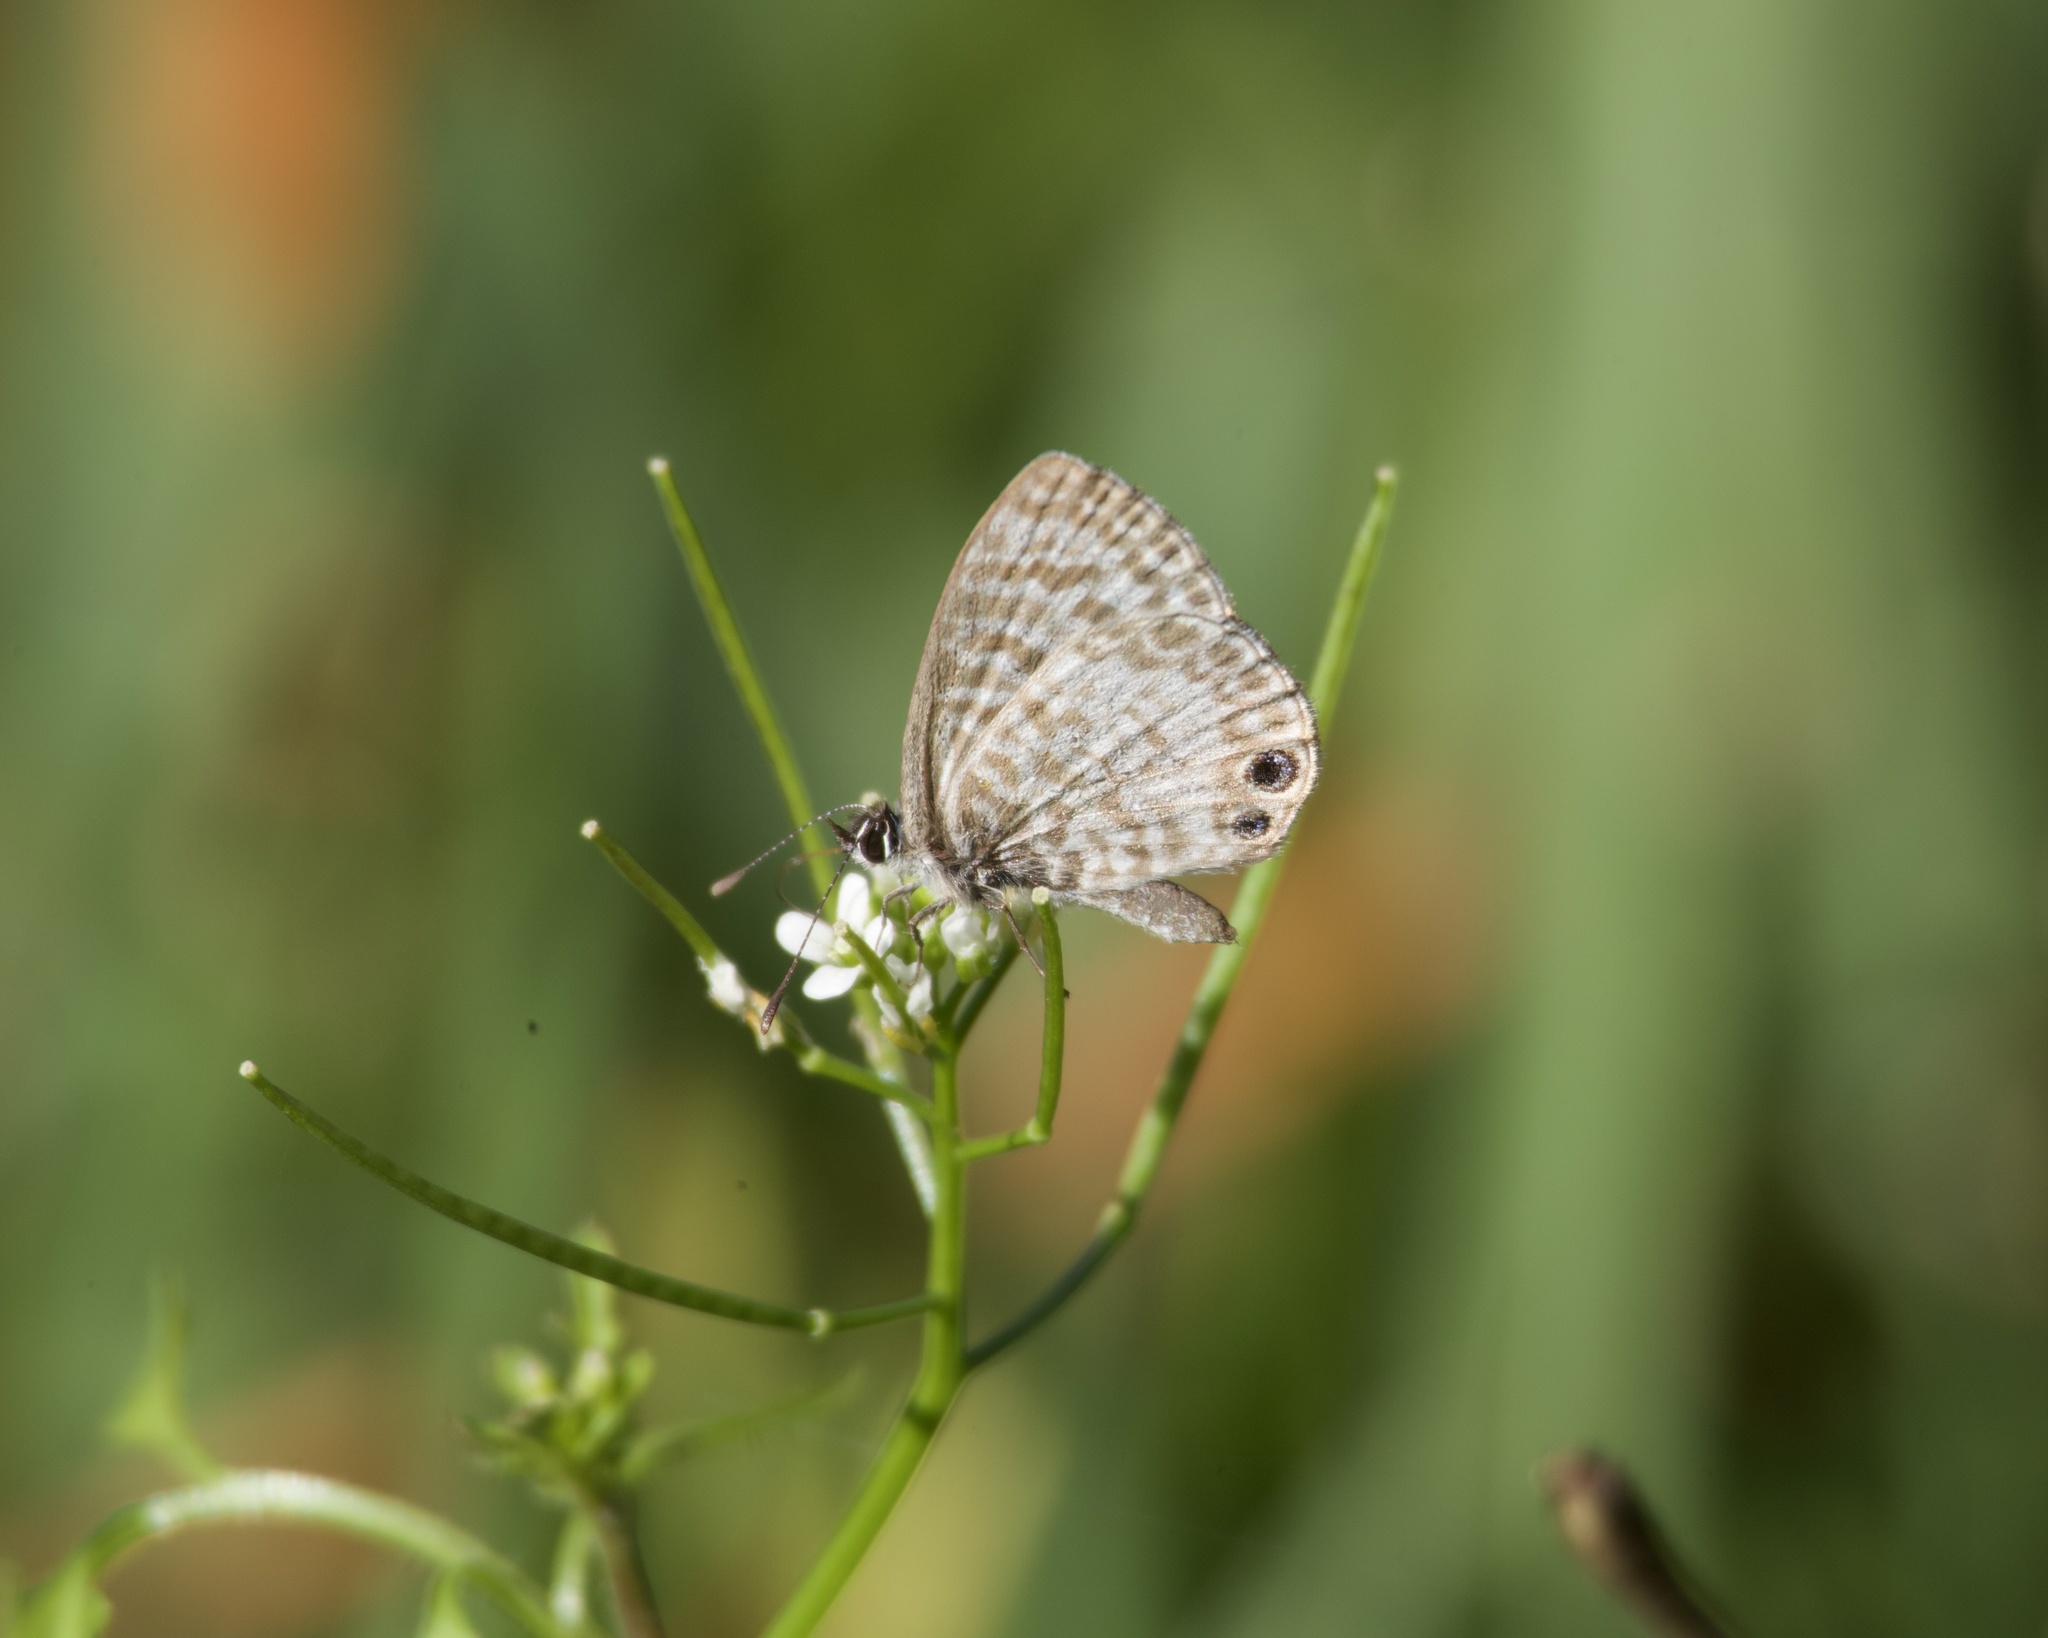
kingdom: Animalia
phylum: Arthropoda
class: Insecta
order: Lepidoptera
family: Lycaenidae
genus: Leptotes
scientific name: Leptotes cassius
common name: Cassius blue
